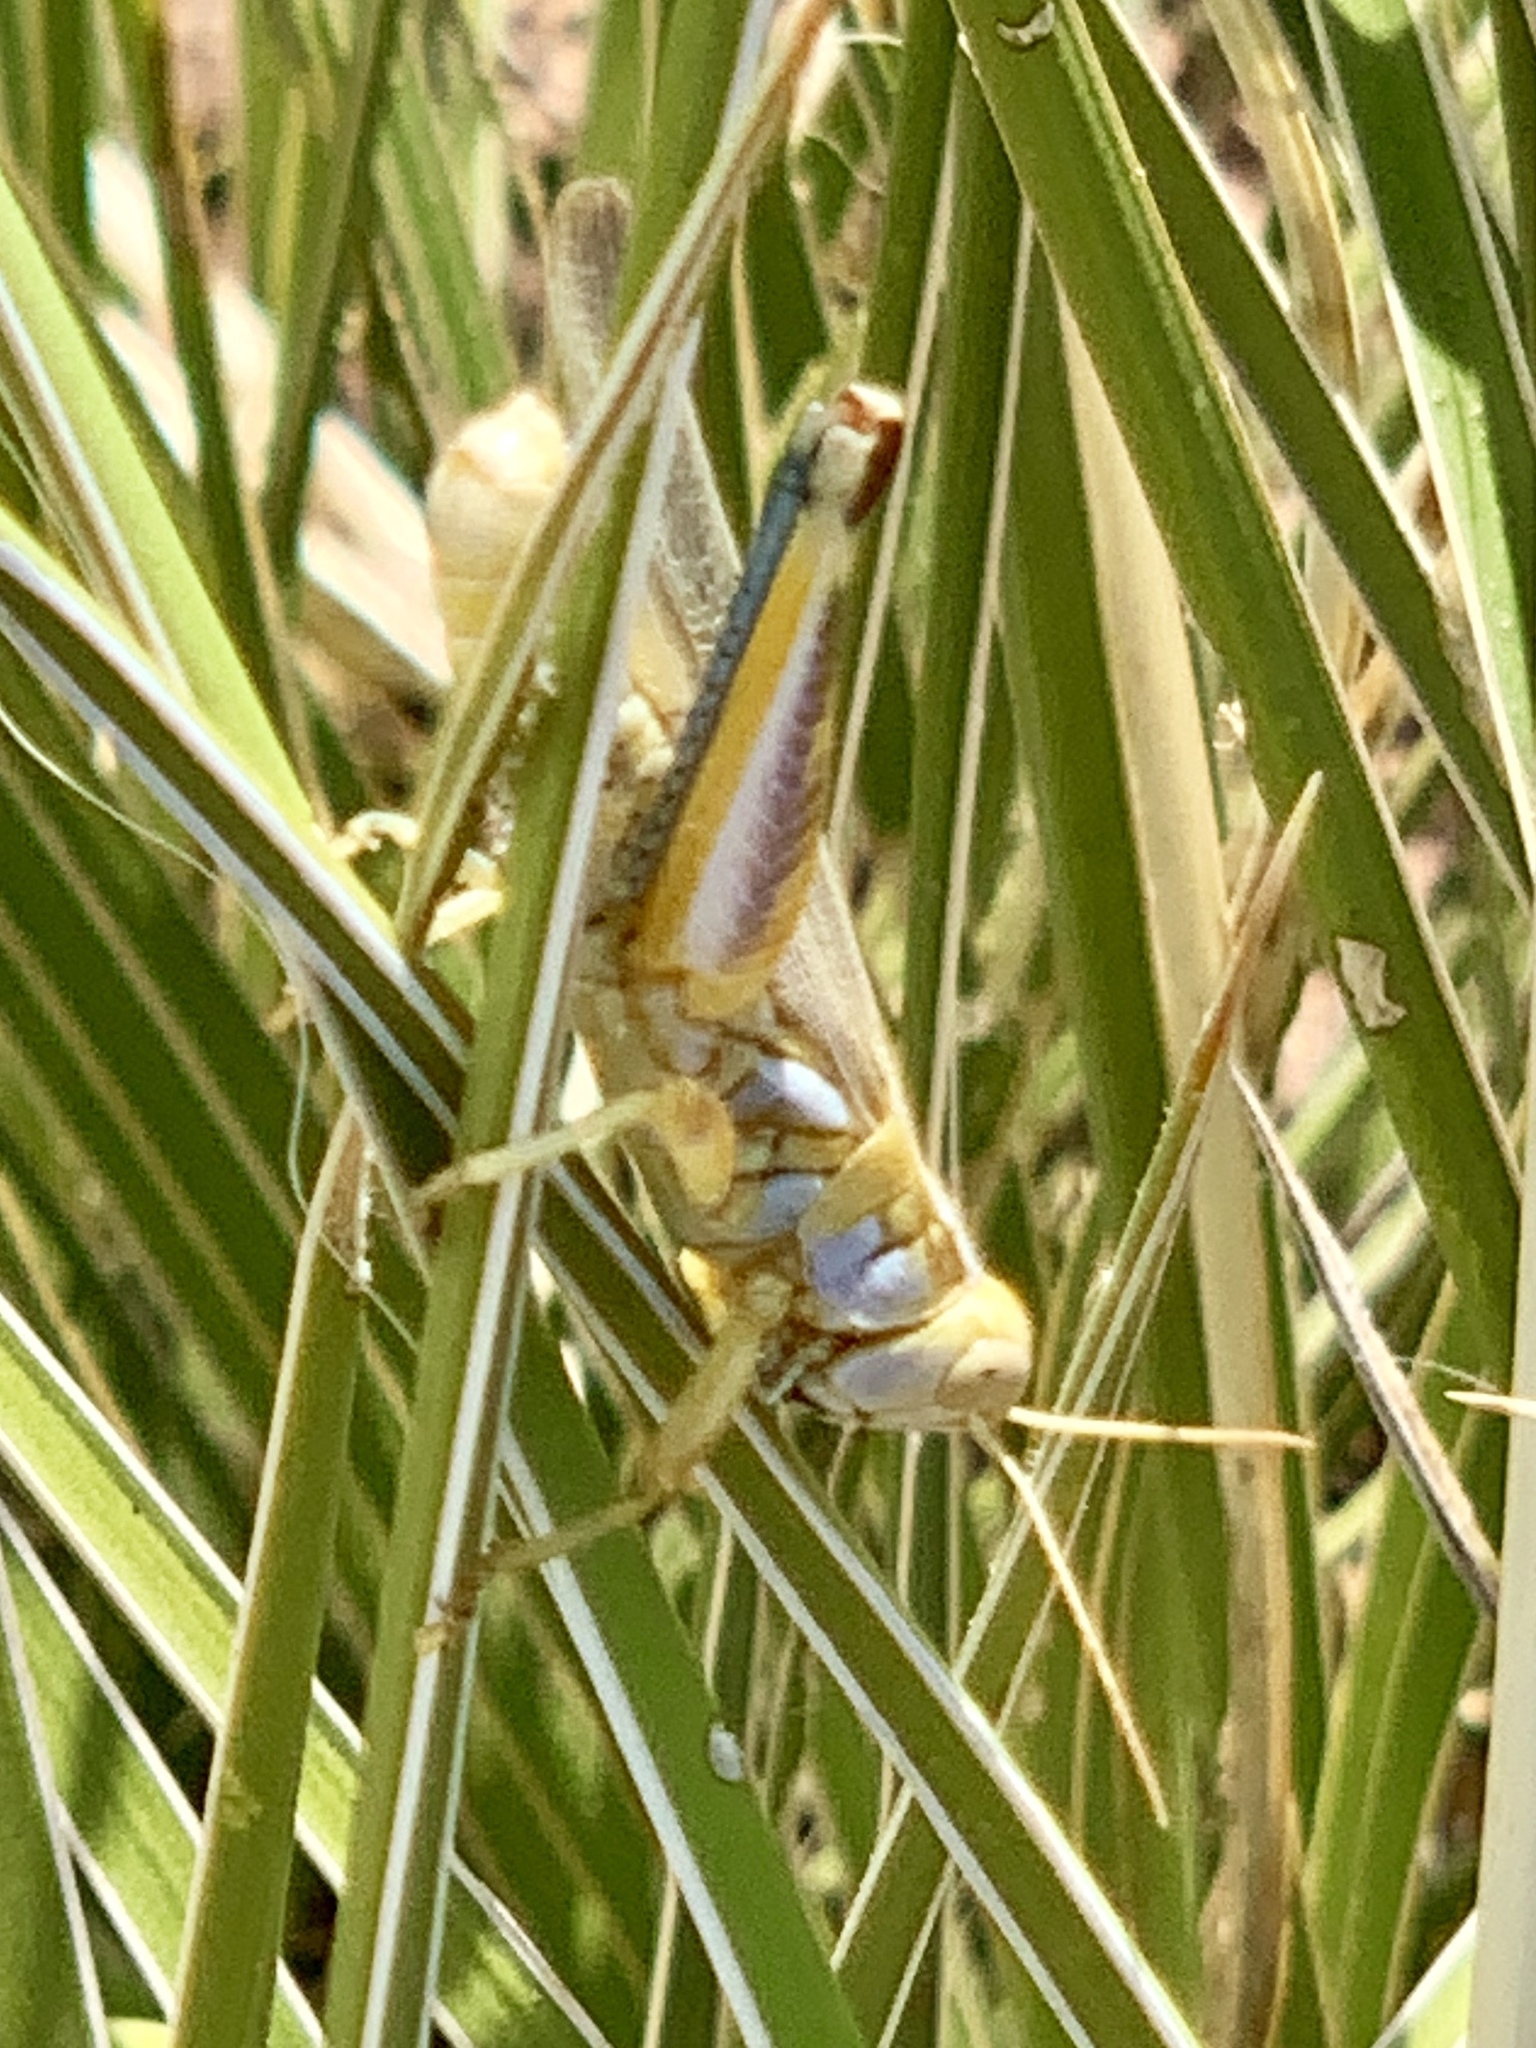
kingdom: Animalia
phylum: Arthropoda
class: Insecta
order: Orthoptera
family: Acrididae
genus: Melanoplus
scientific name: Melanoplus bowditchi
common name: Sagebrush grasshopper
